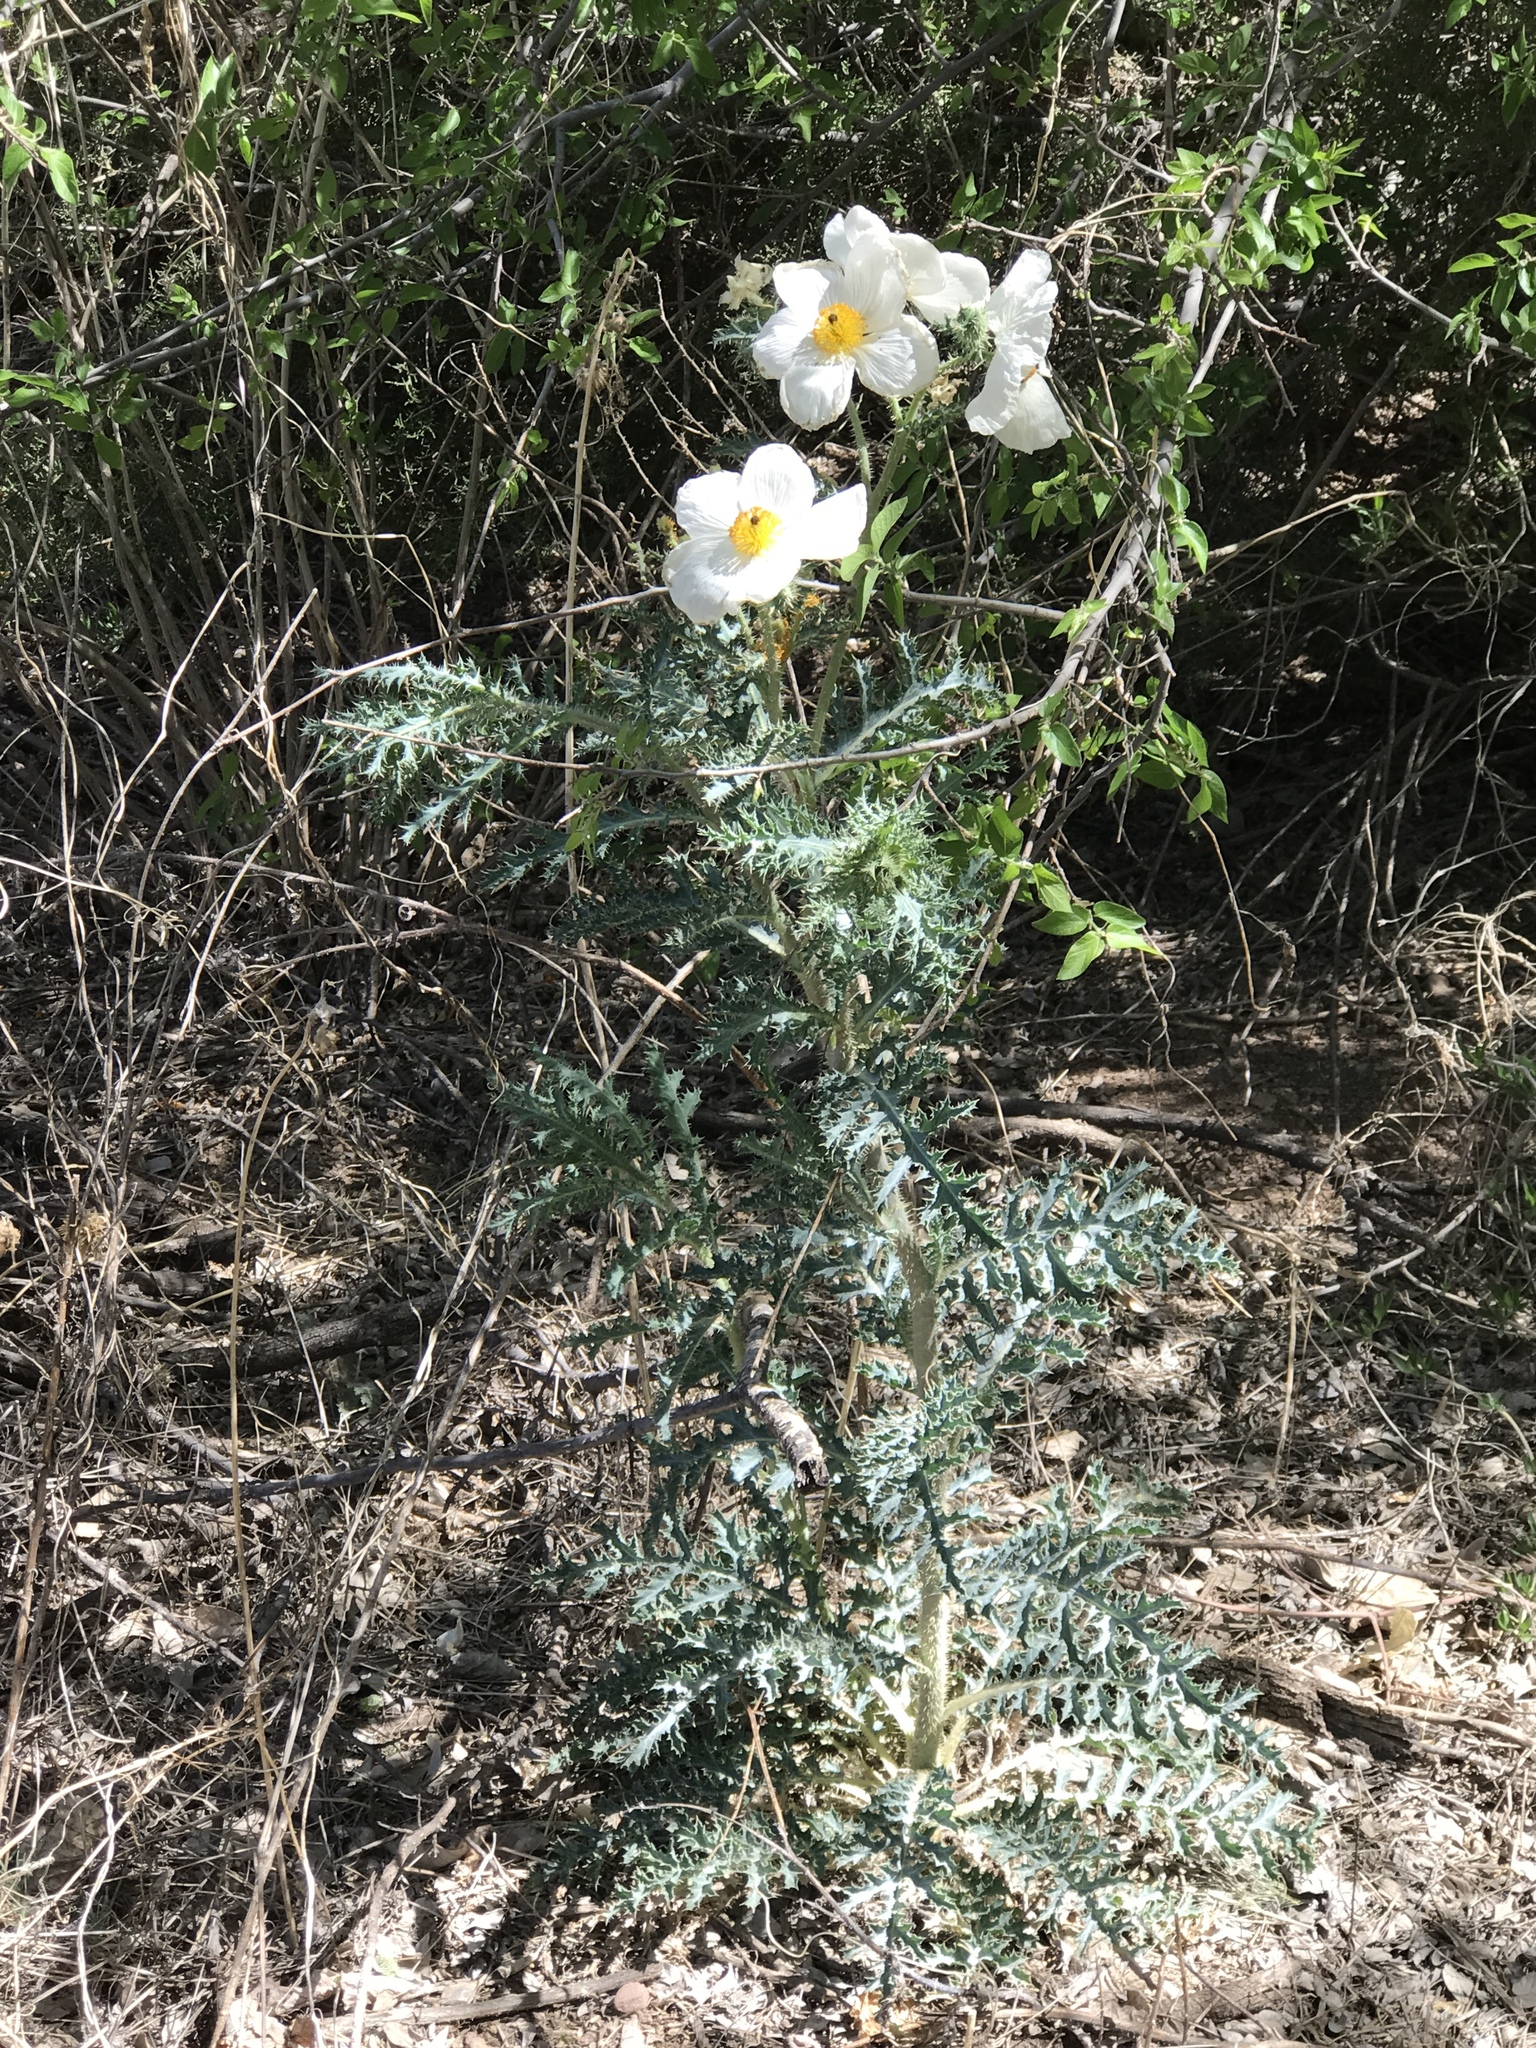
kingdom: Plantae
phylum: Tracheophyta
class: Magnoliopsida
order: Ranunculales
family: Papaveraceae
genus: Argemone
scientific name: Argemone pleiacantha
